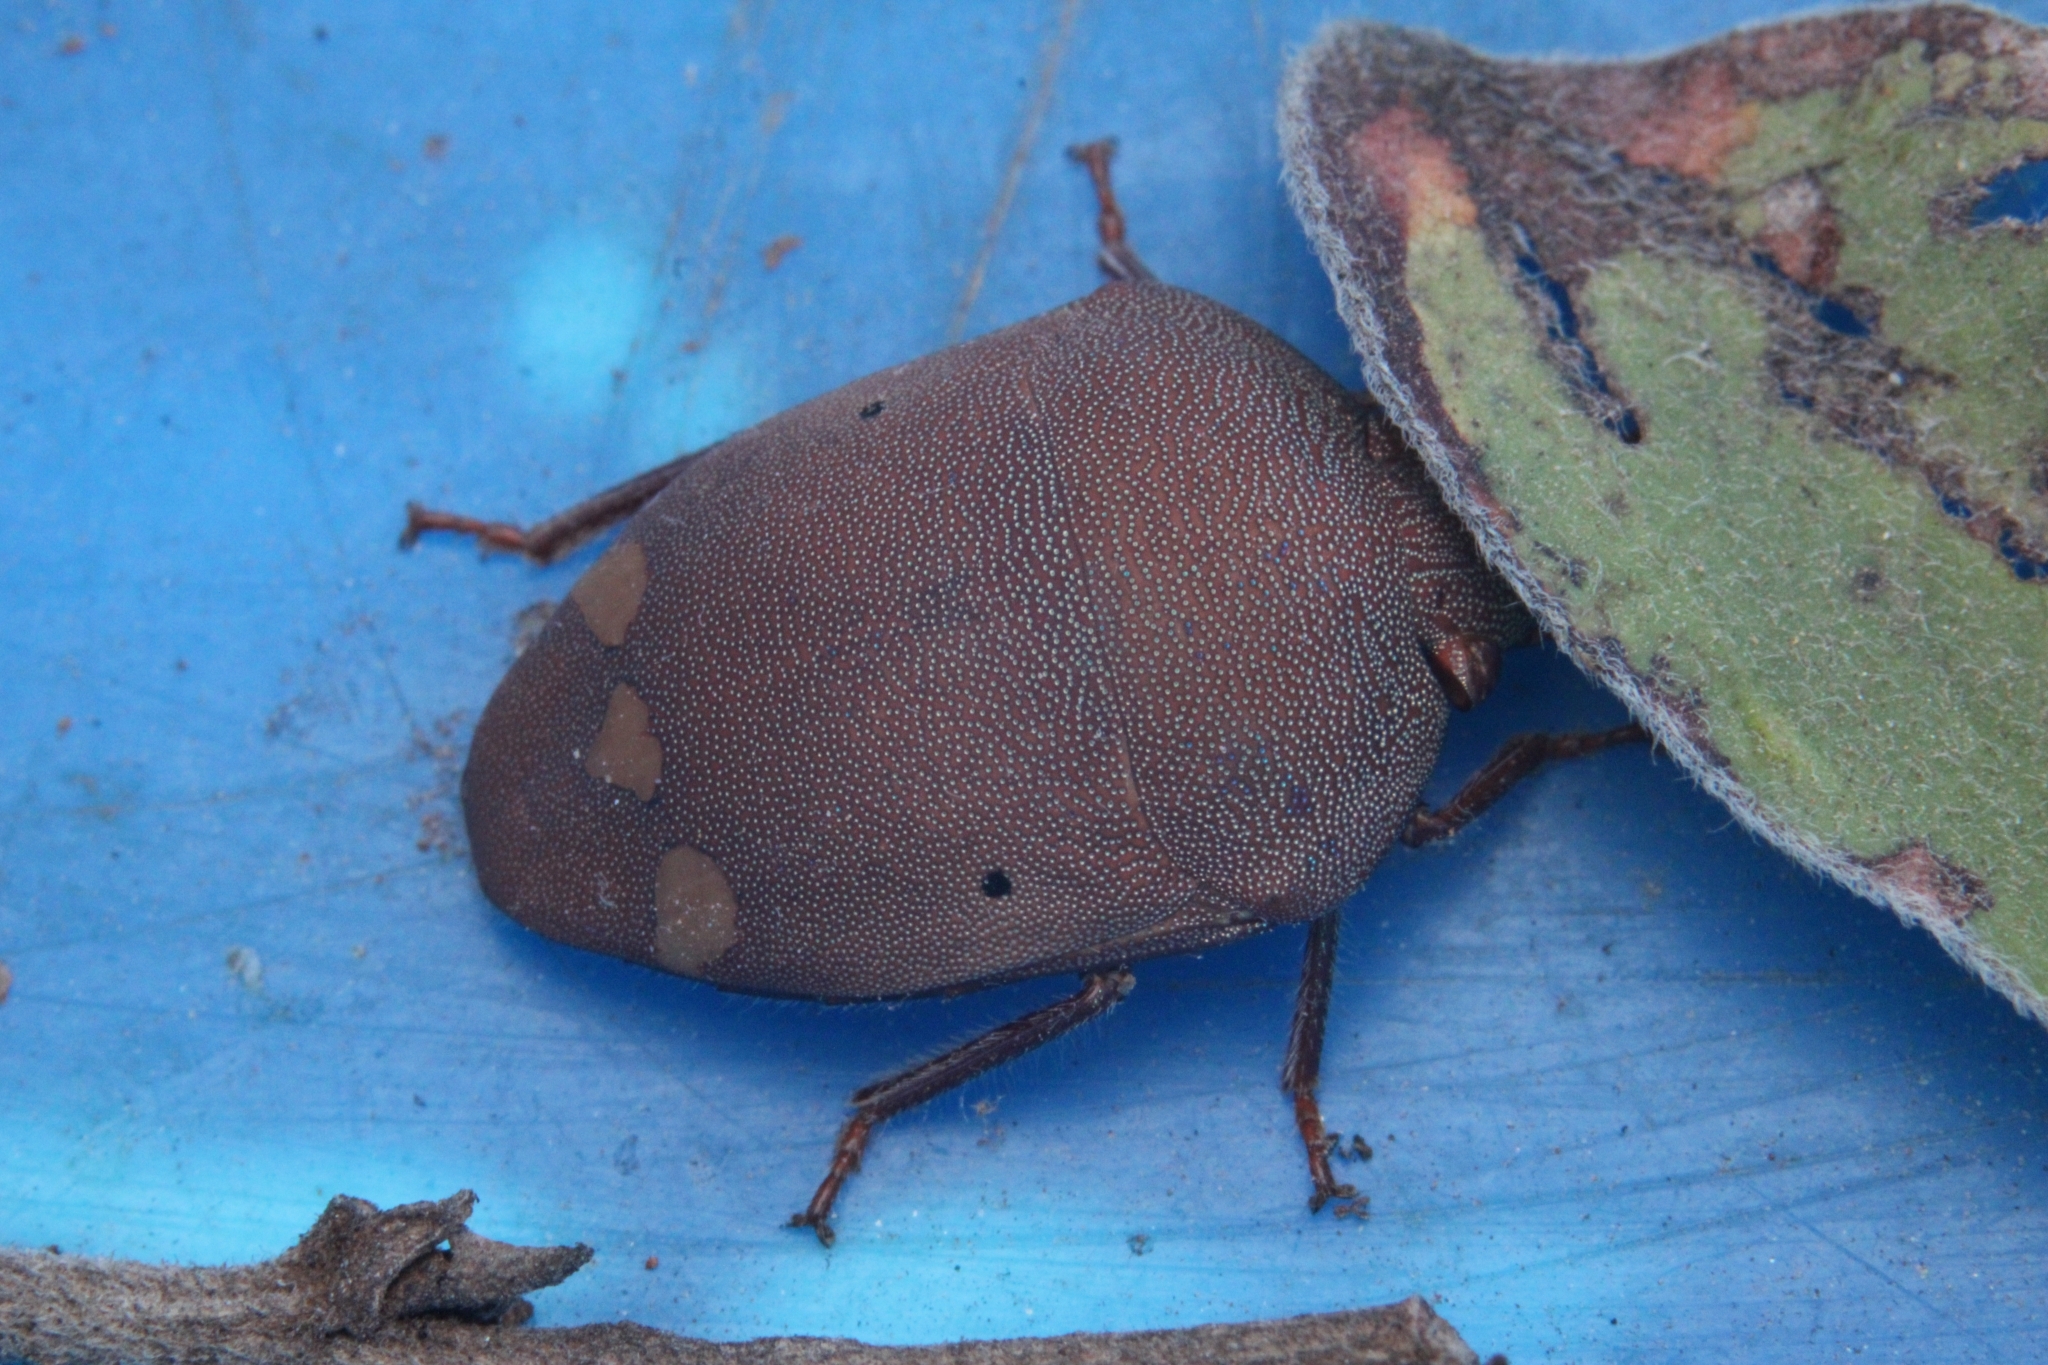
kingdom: Animalia
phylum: Arthropoda
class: Insecta
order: Hemiptera
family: Scutelleridae
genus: Solenosthedium
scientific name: Solenosthedium
